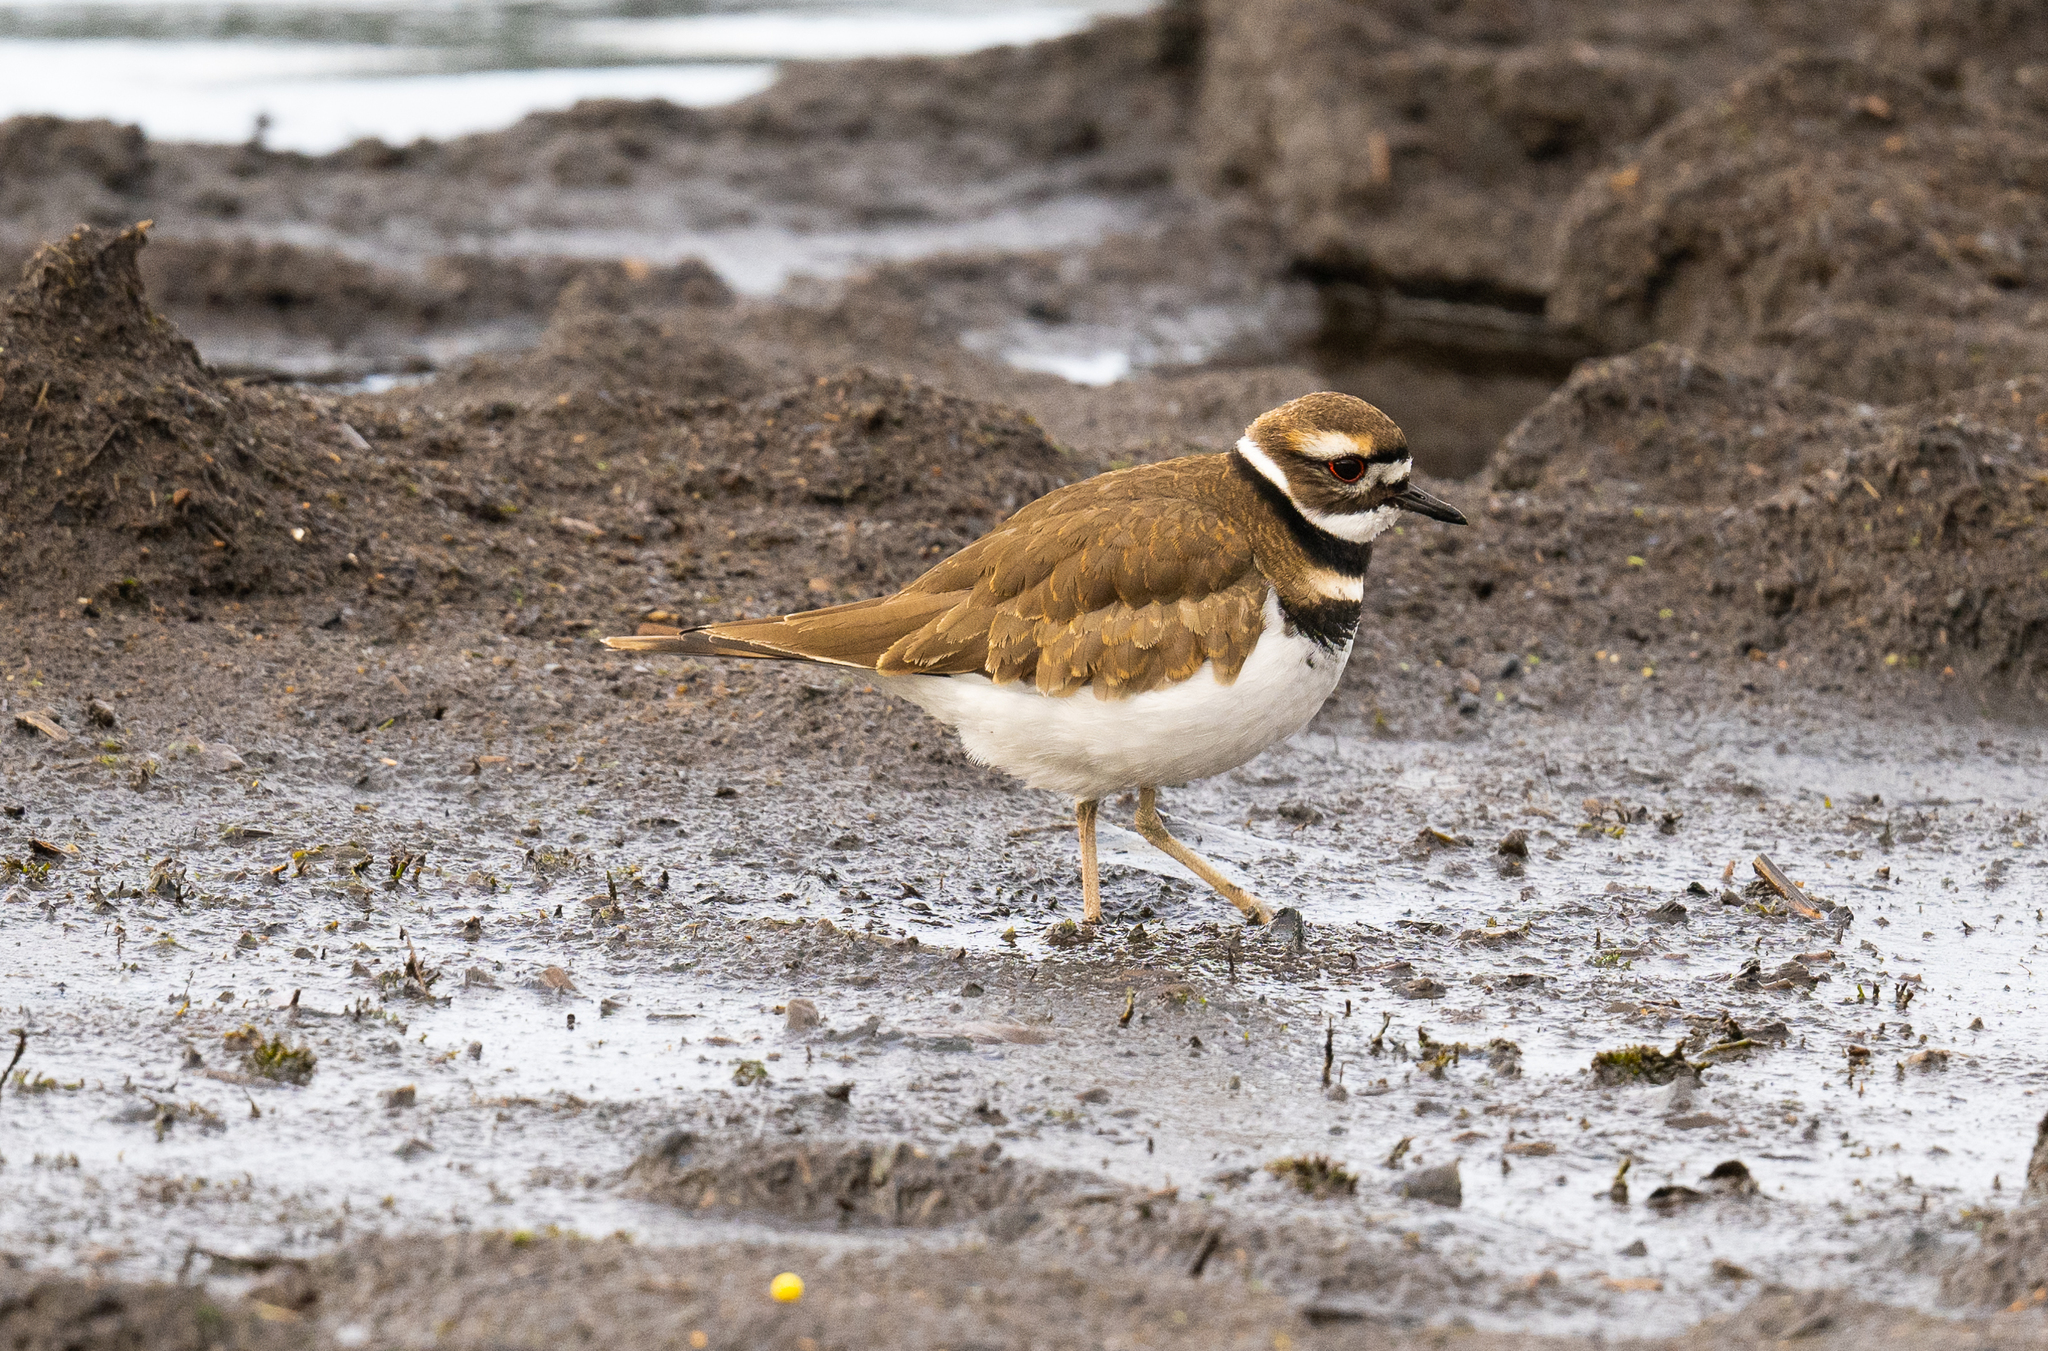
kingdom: Animalia
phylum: Chordata
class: Aves
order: Charadriiformes
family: Charadriidae
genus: Charadrius
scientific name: Charadrius vociferus
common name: Killdeer
